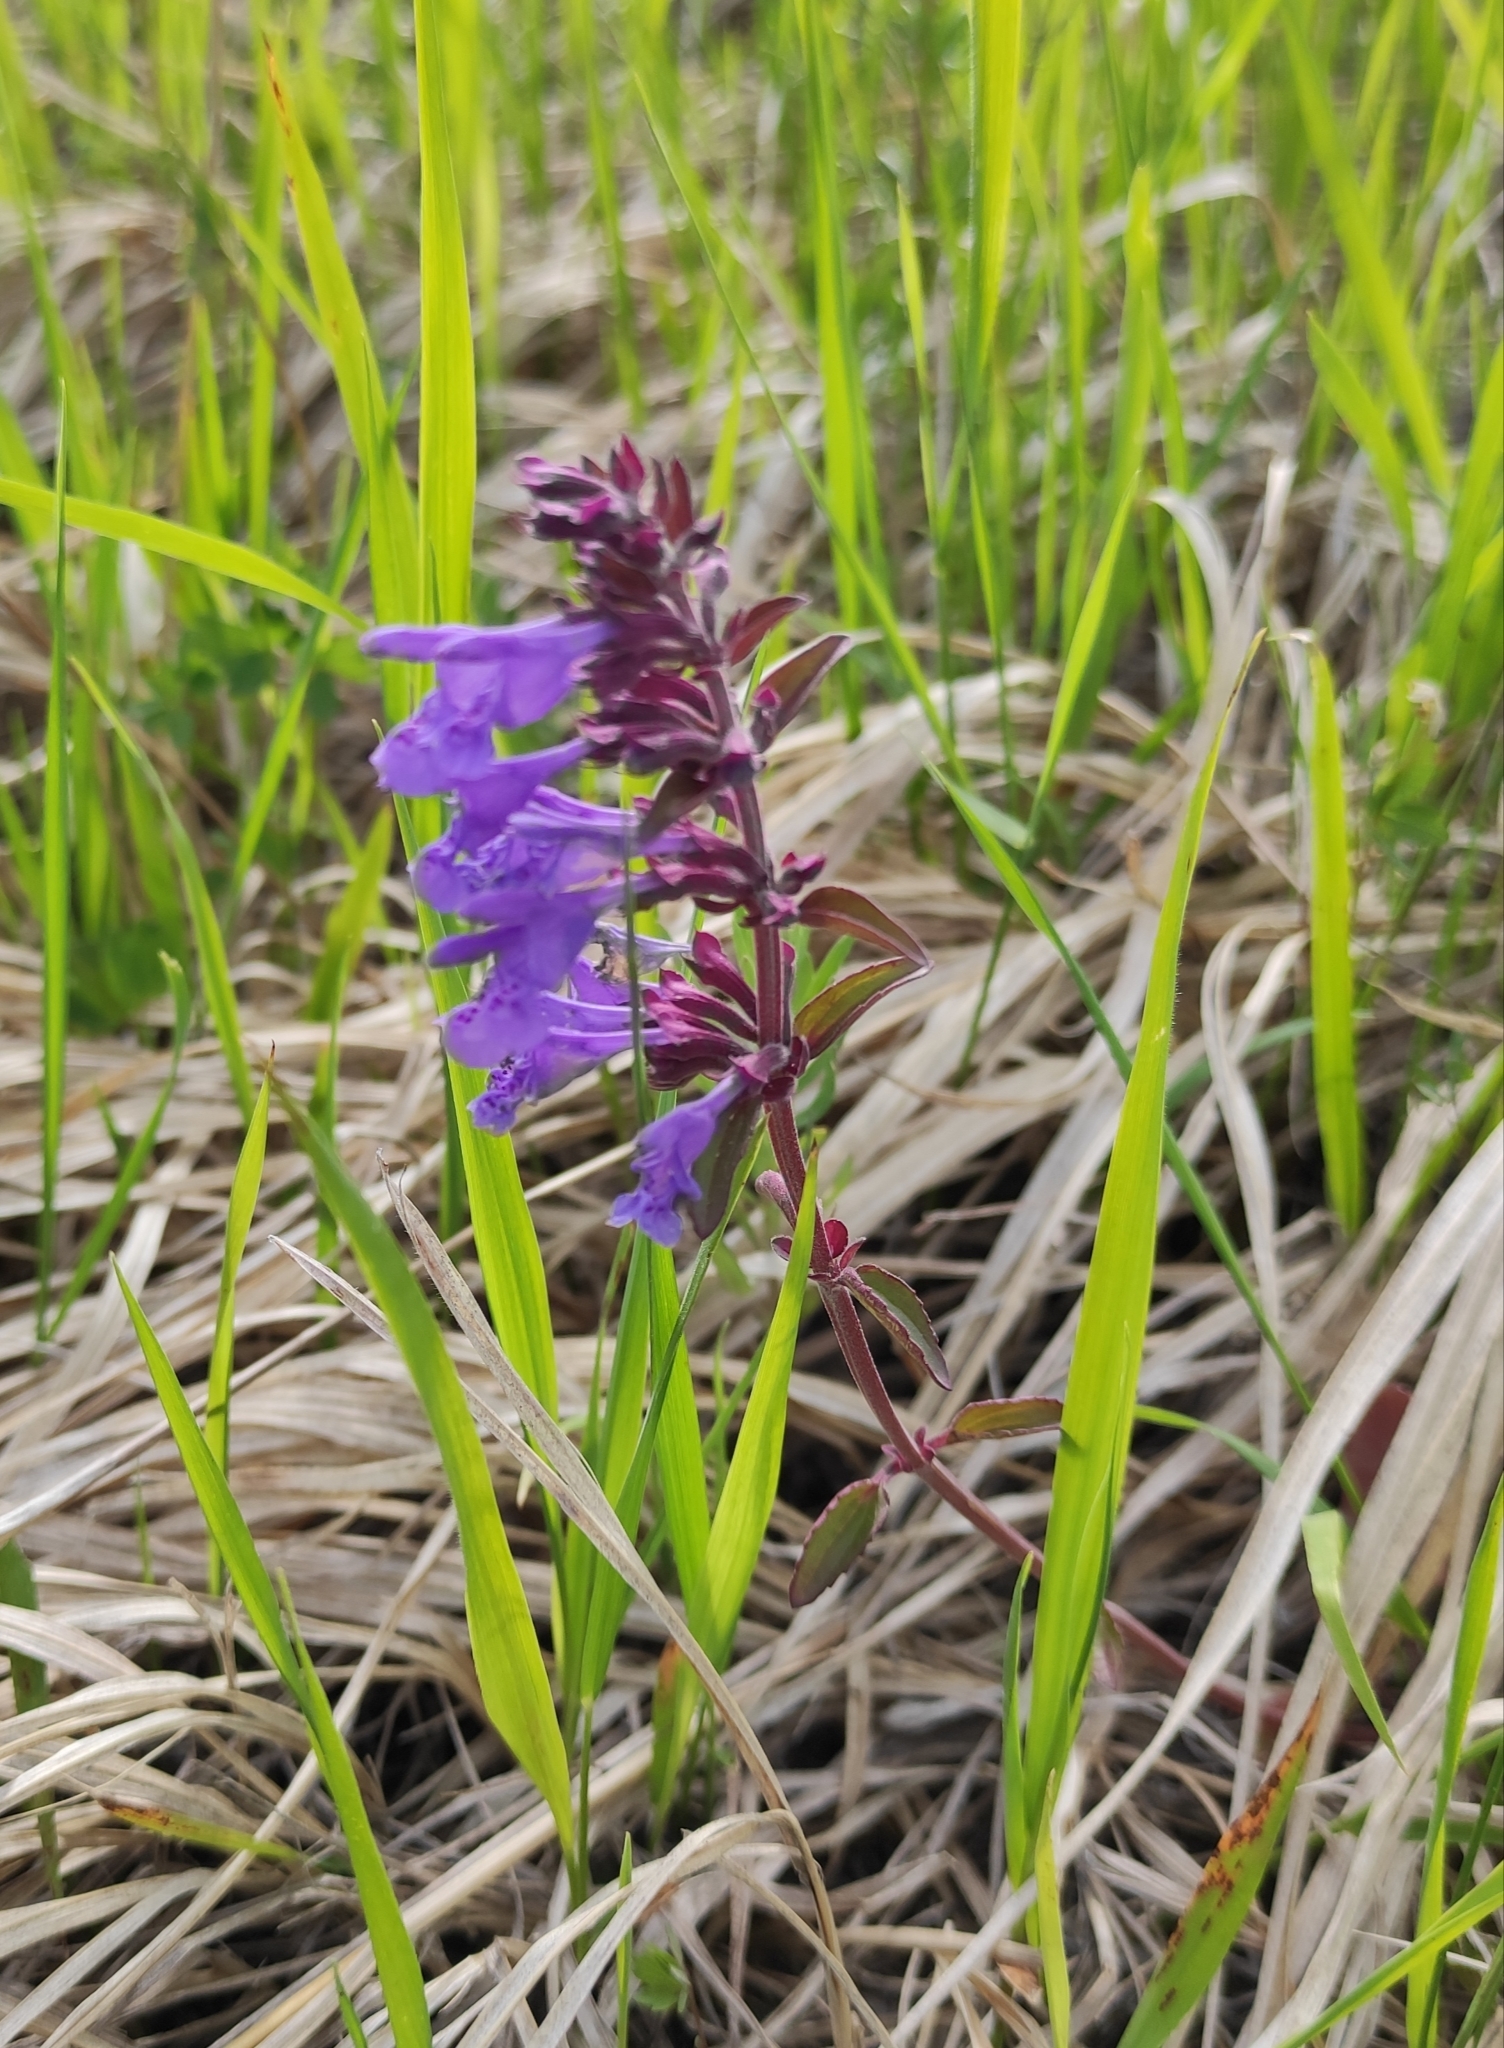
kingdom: Plantae
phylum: Tracheophyta
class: Magnoliopsida
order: Lamiales
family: Lamiaceae
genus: Dracocephalum
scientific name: Dracocephalum nutans
